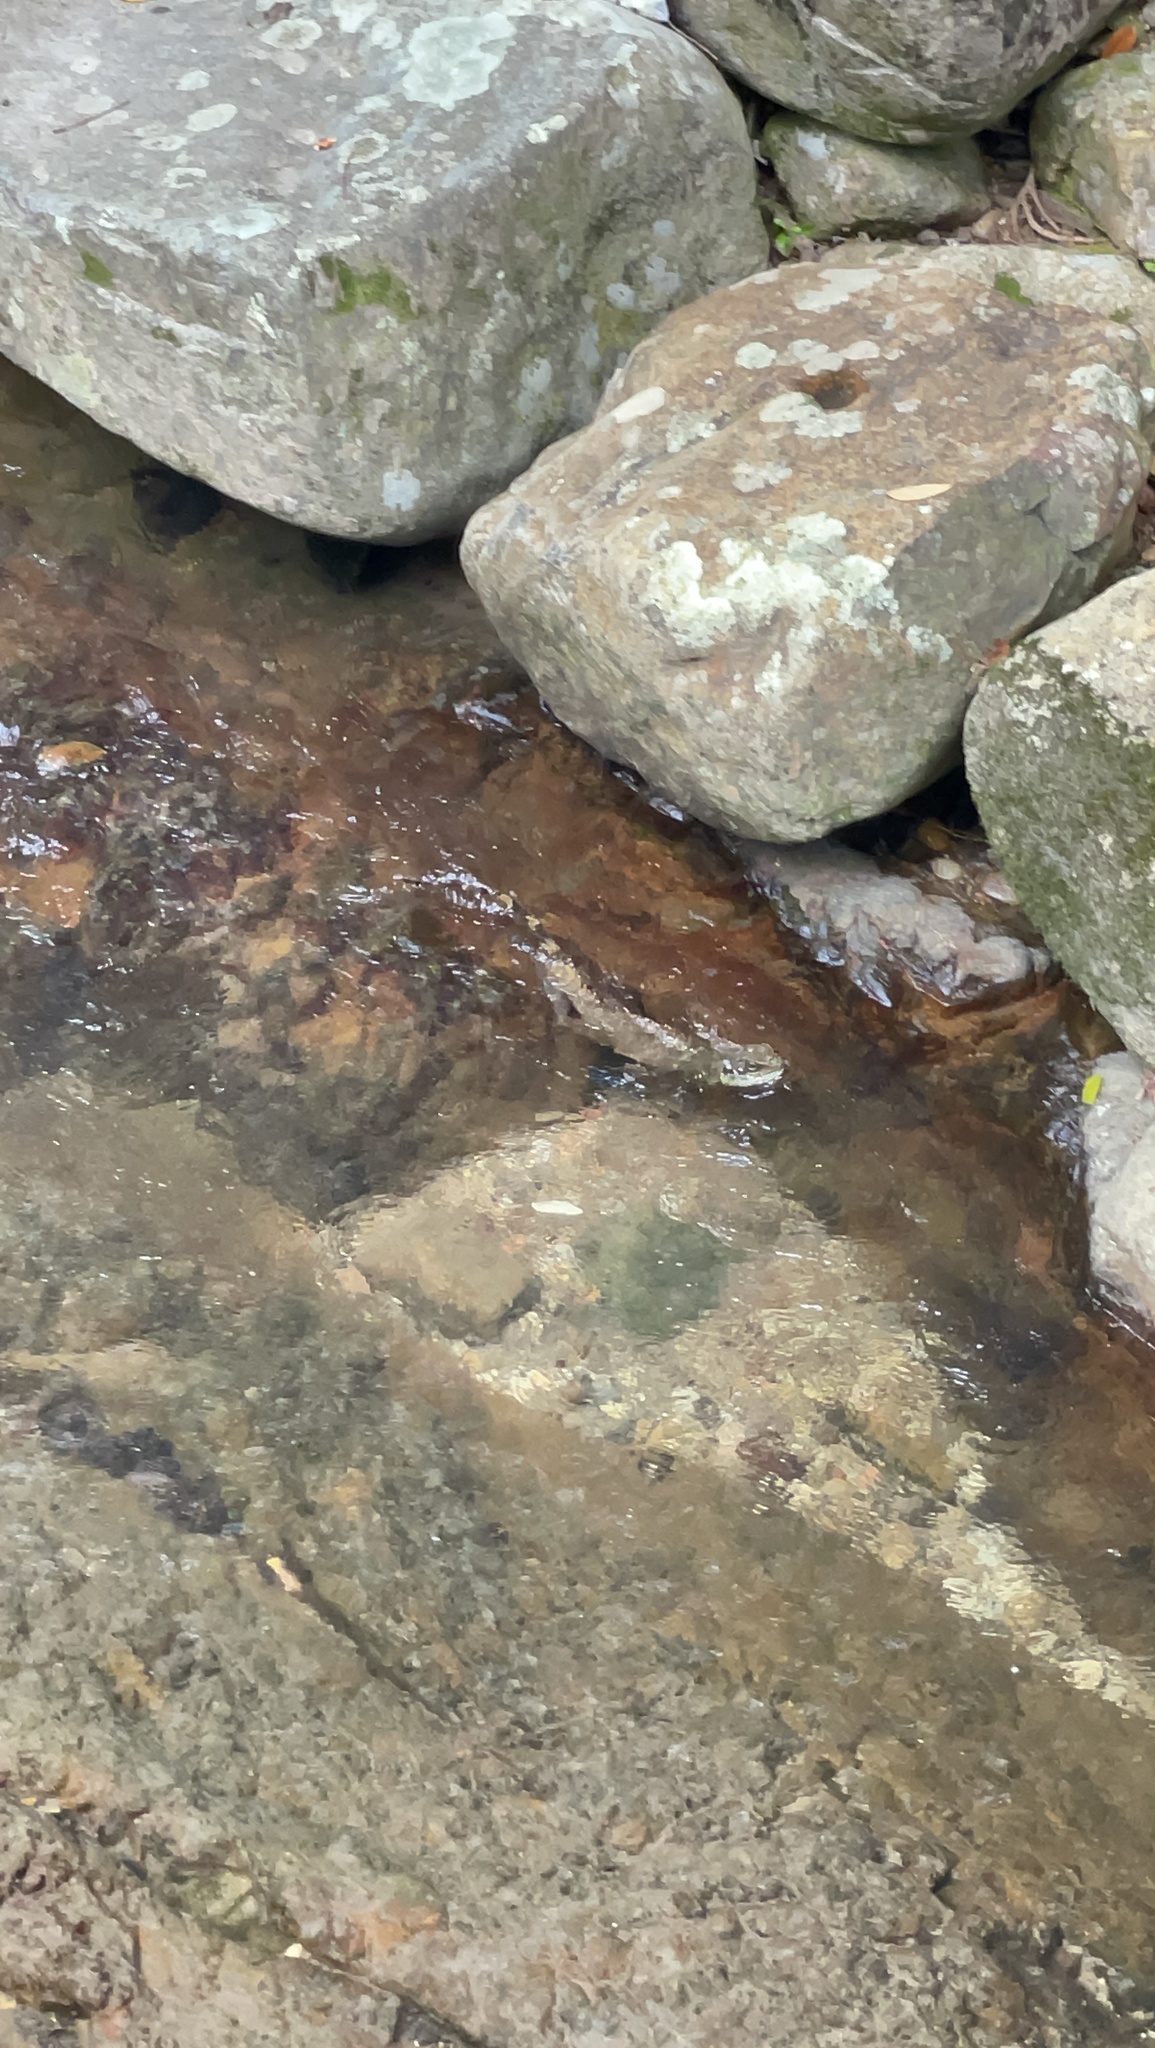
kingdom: Animalia
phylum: Chordata
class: Squamata
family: Agamidae
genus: Physignathus
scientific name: Physignathus cocincinus
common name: Asian water dragon
